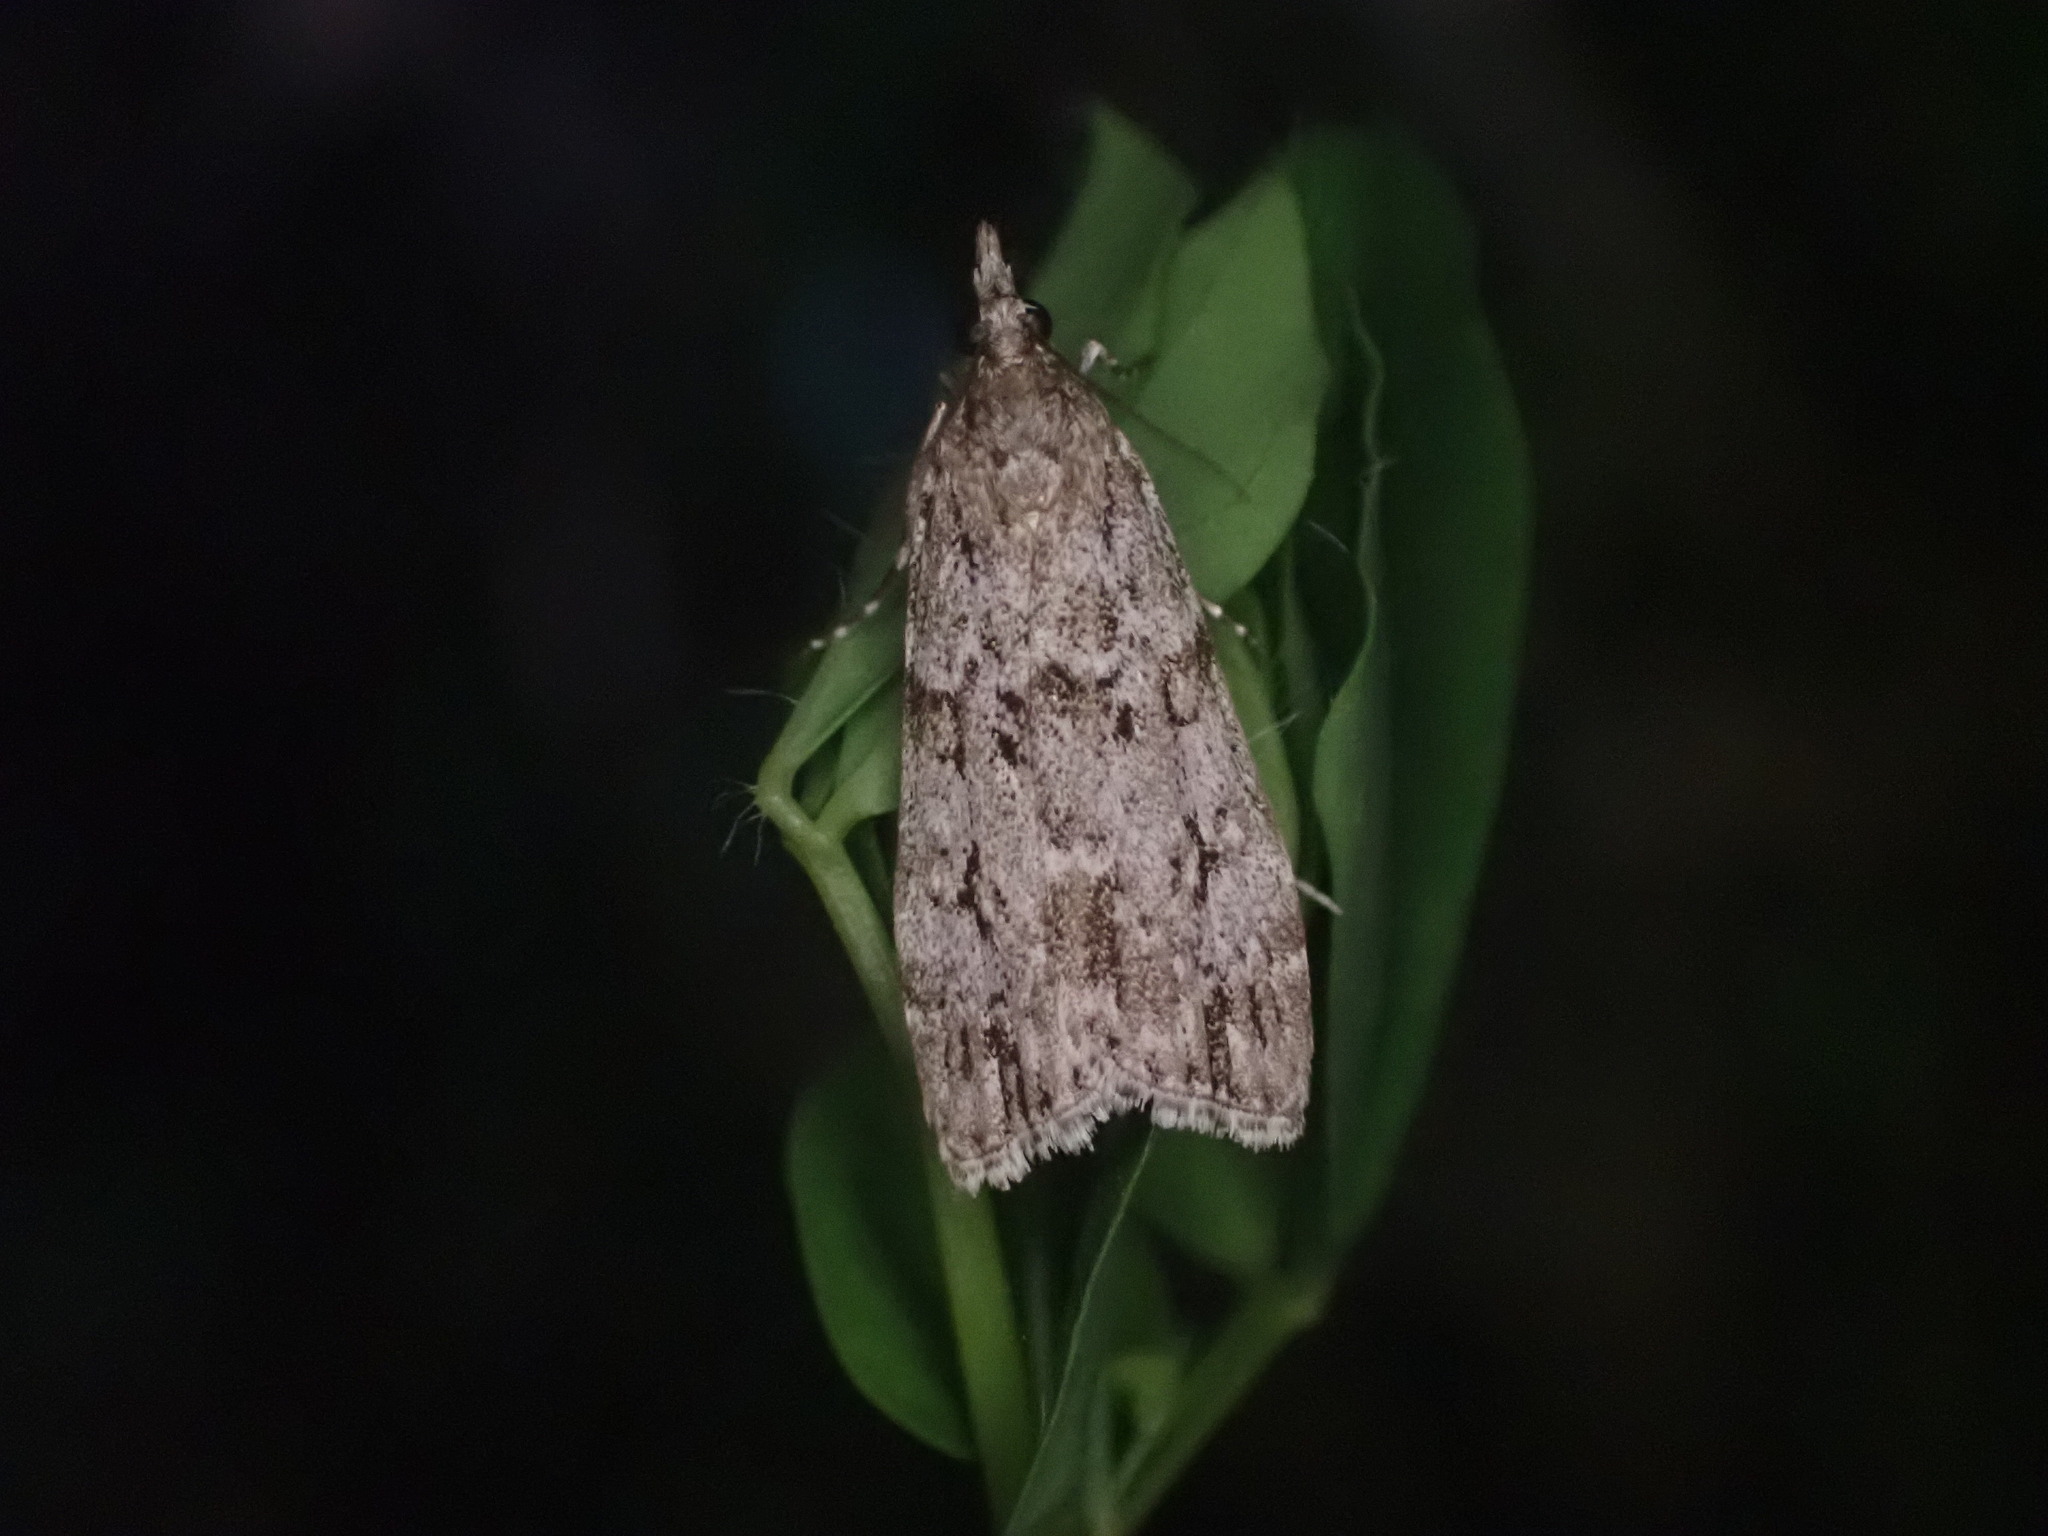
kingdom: Animalia
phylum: Arthropoda
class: Insecta
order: Lepidoptera
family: Crambidae
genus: Eudonia
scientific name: Eudonia cymatias
